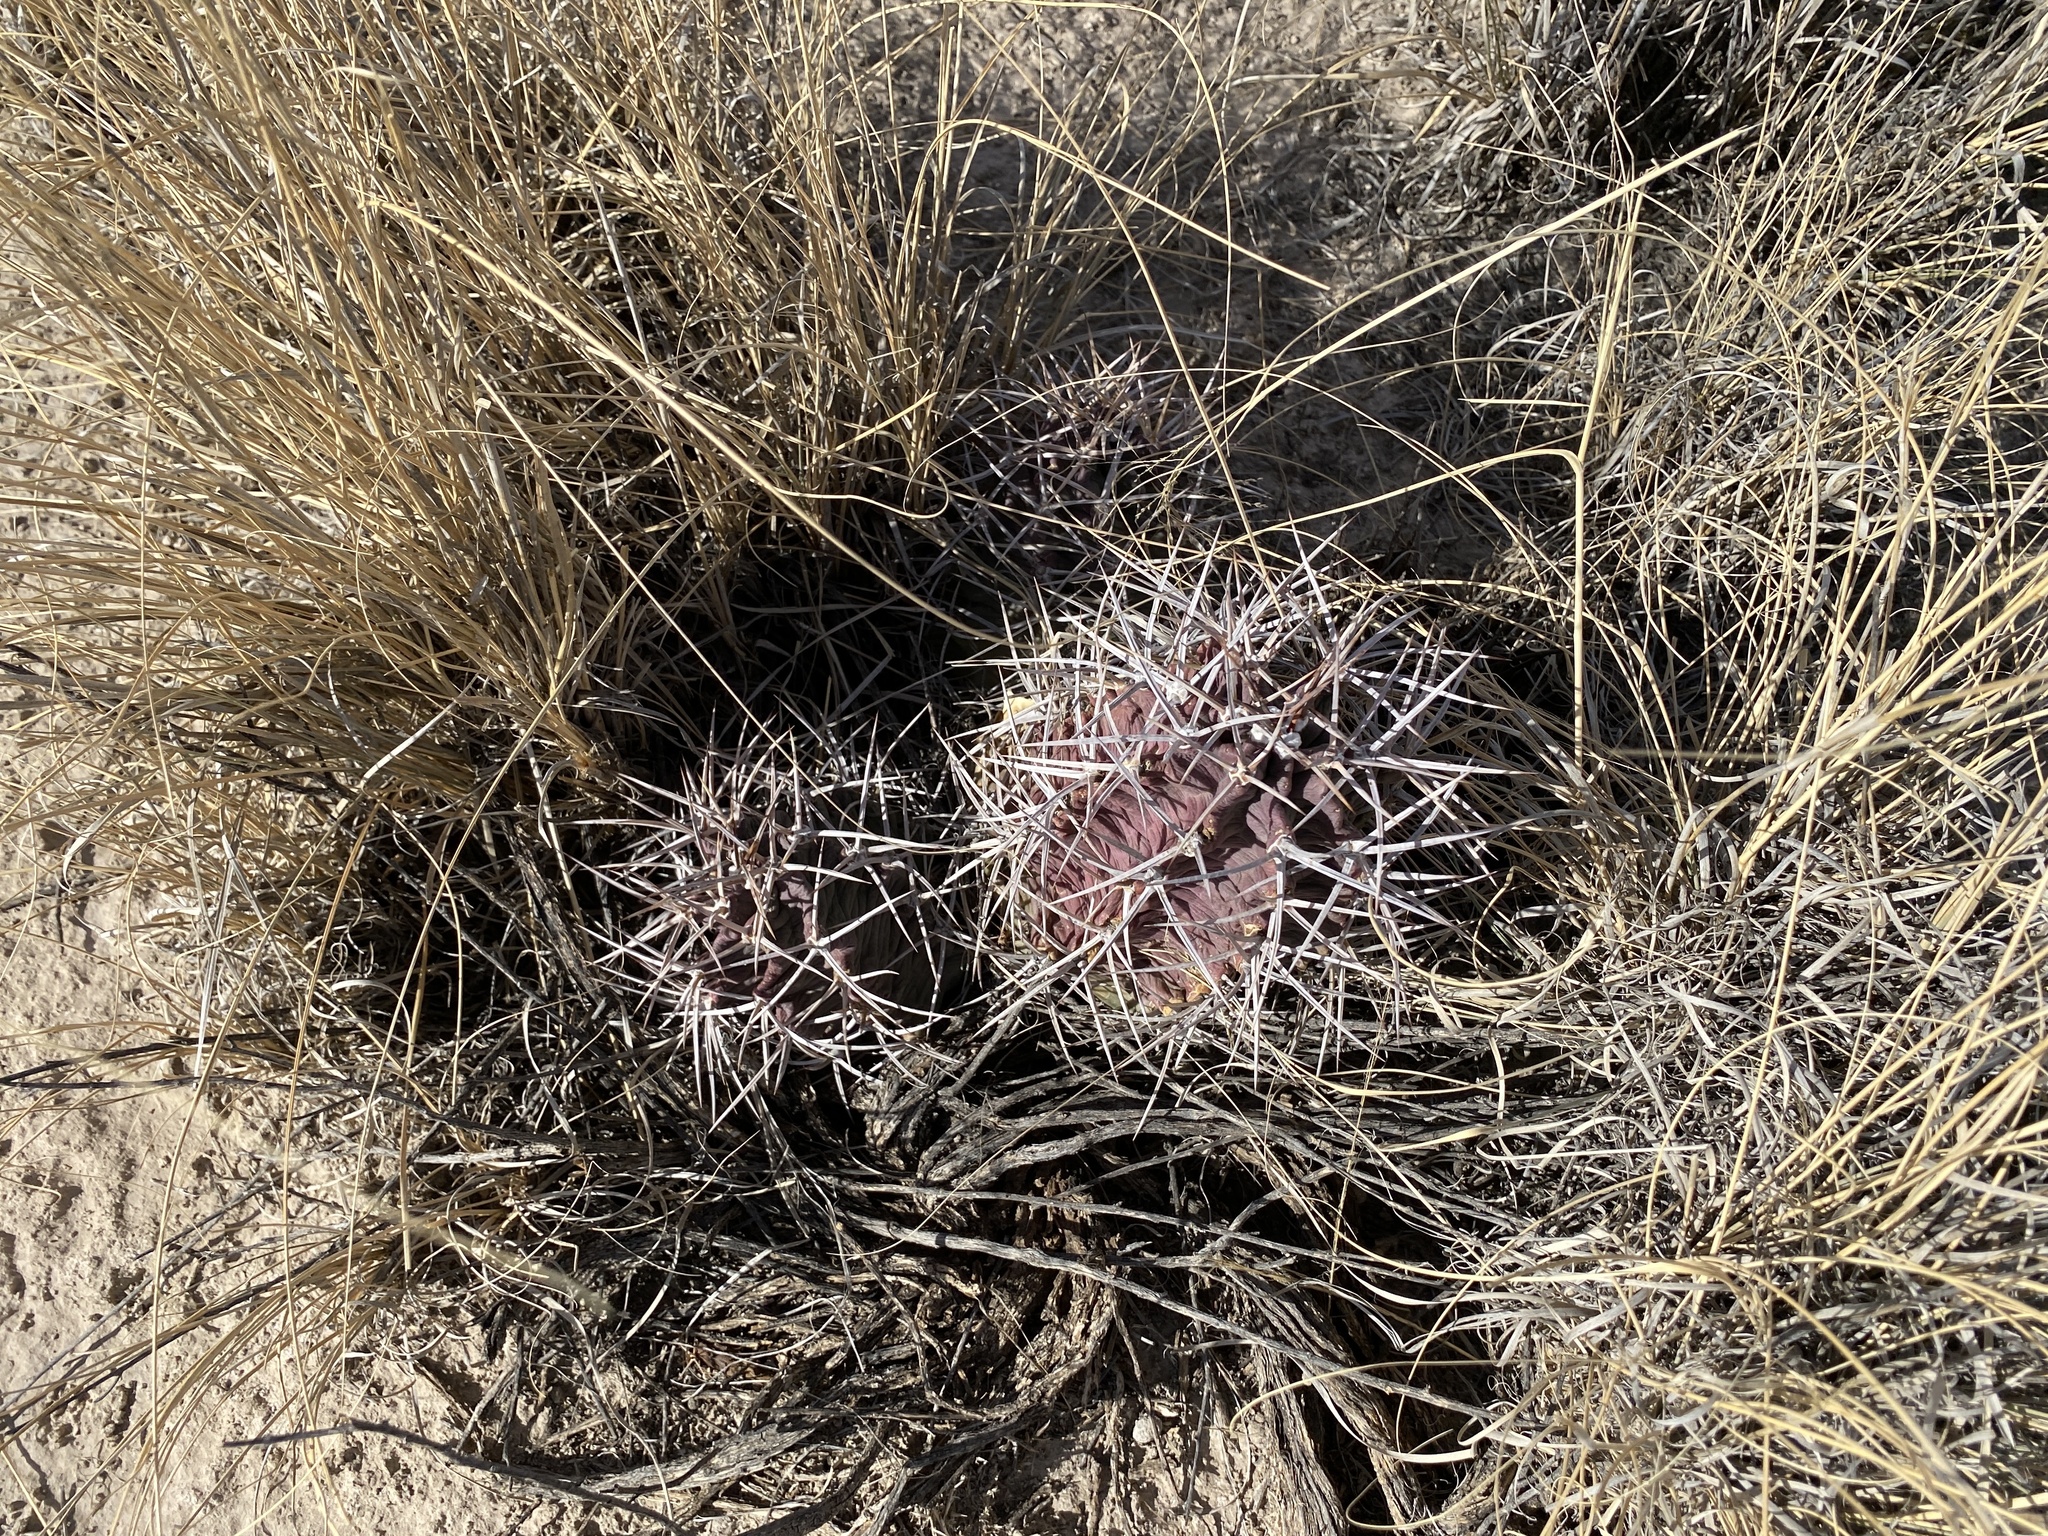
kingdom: Plantae
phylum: Tracheophyta
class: Magnoliopsida
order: Caryophyllales
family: Cactaceae
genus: Echinocereus
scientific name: Echinocereus triglochidiatus
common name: Claretcup hedgehog
